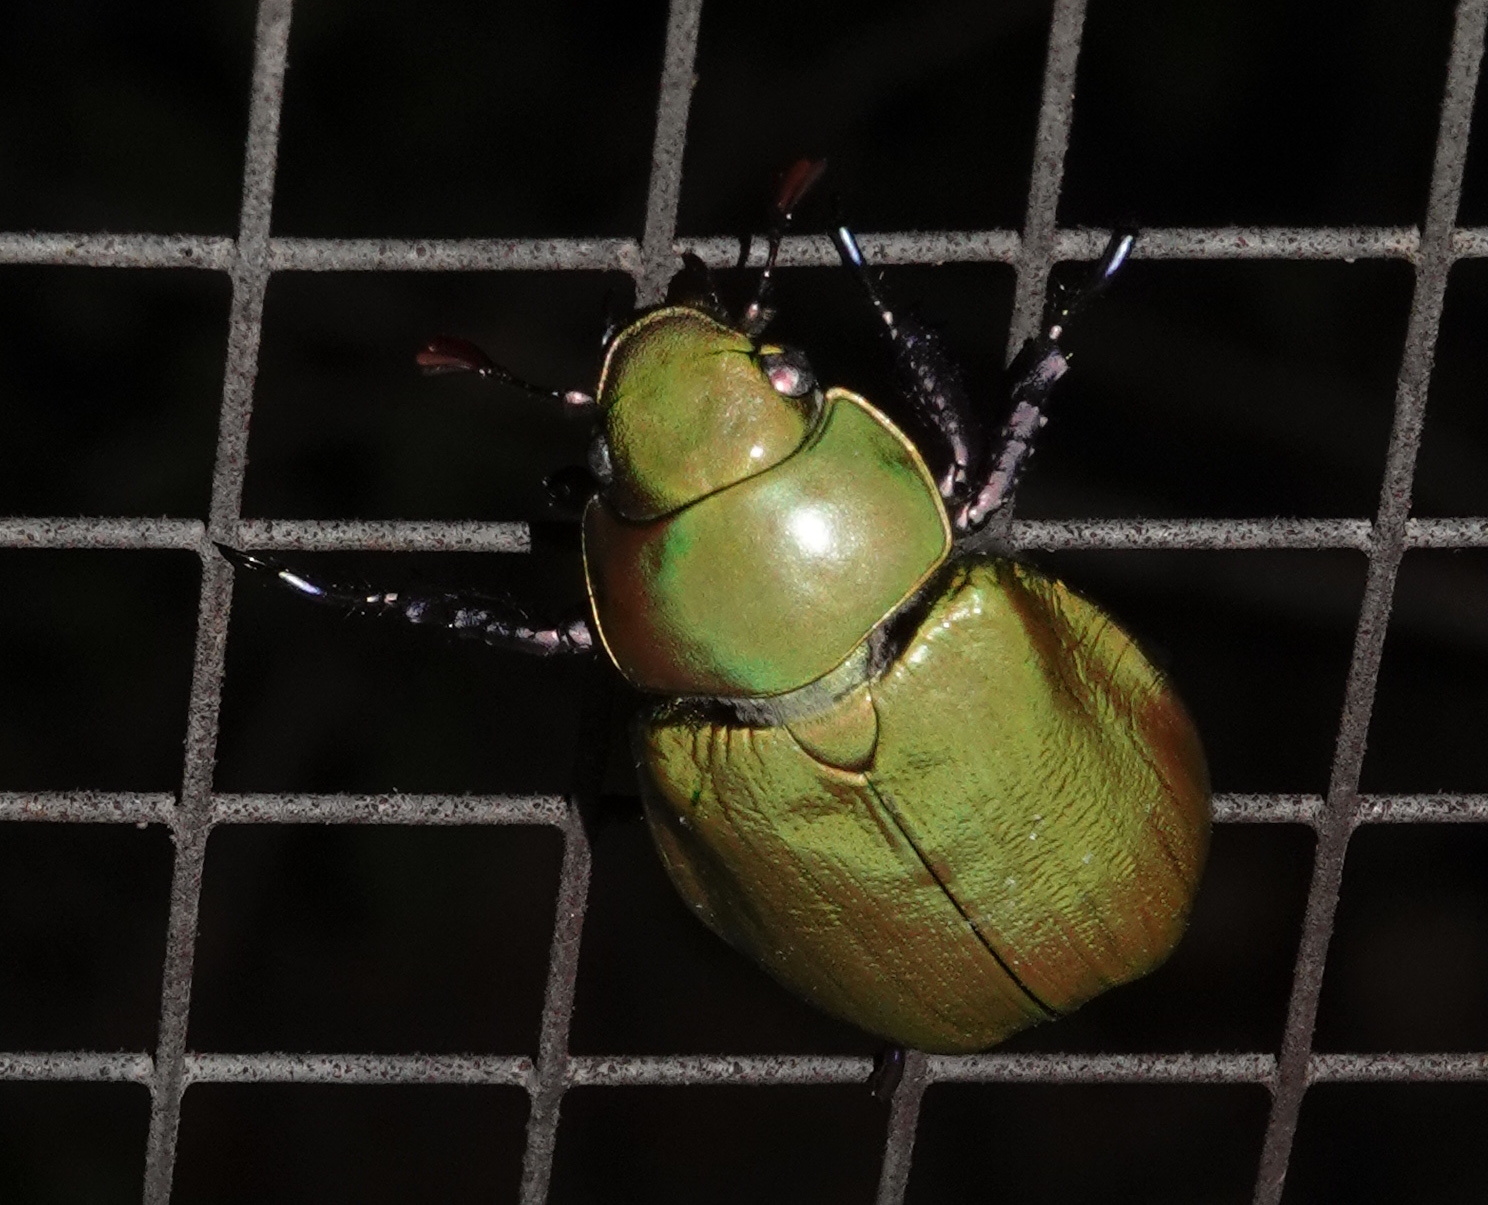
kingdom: Animalia
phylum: Arthropoda
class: Insecta
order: Coleoptera
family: Scarabaeidae
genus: Chrysina
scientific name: Chrysina beyeri
